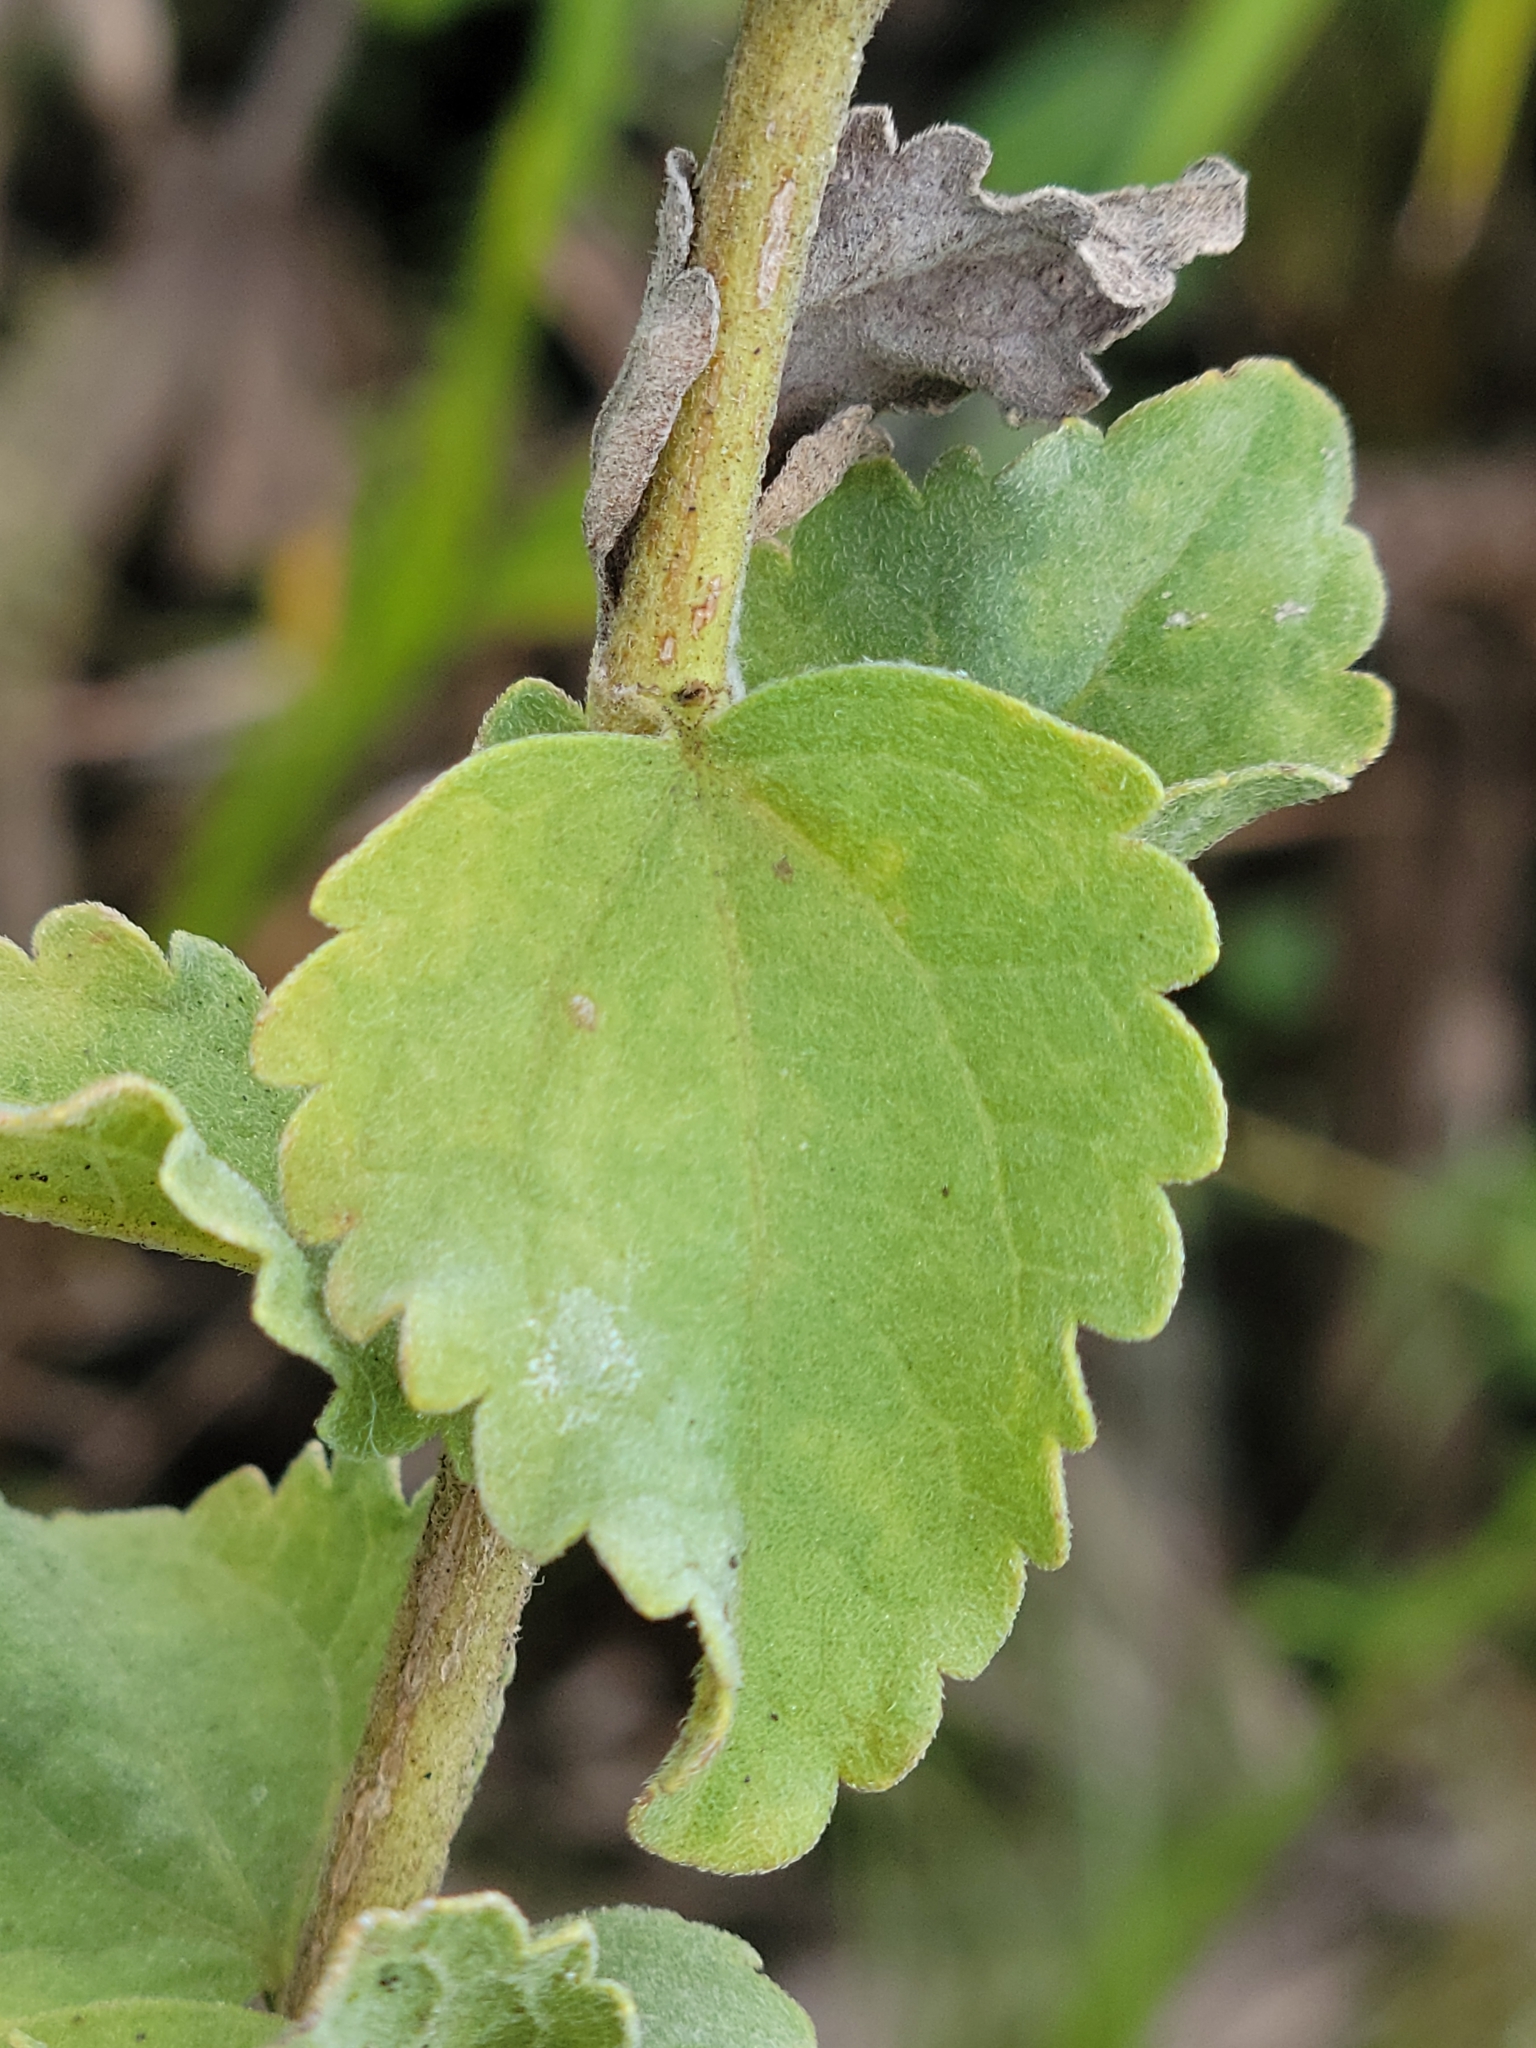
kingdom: Plantae
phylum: Tracheophyta
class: Magnoliopsida
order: Asterales
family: Asteraceae
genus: Eupatorium
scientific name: Eupatorium rotundifolium
